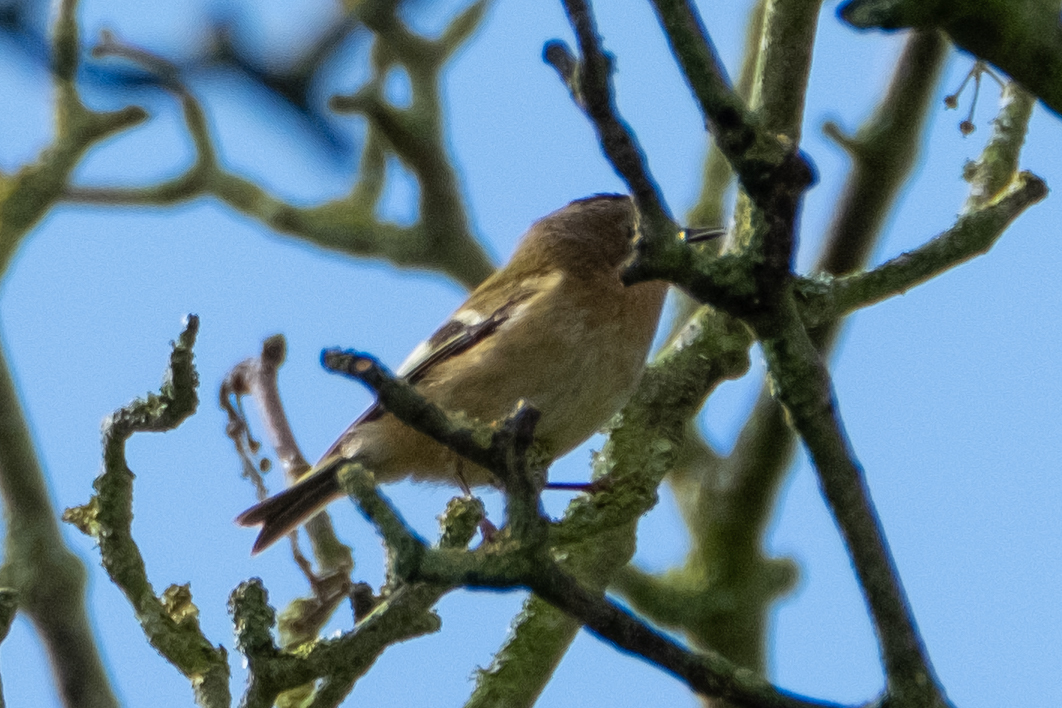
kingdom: Animalia
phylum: Chordata
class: Aves
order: Passeriformes
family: Regulidae
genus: Regulus
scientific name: Regulus regulus
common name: Goldcrest
